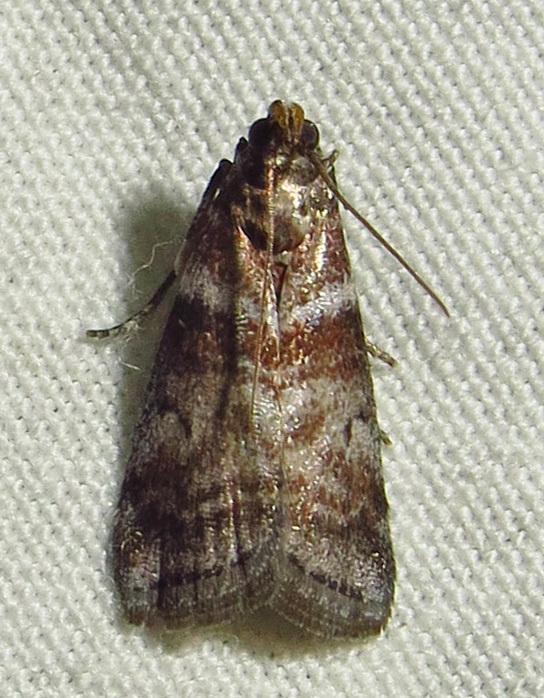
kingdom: Animalia
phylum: Arthropoda
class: Insecta
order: Lepidoptera
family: Pyralidae
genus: Sciota
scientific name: Sciota uvinella
